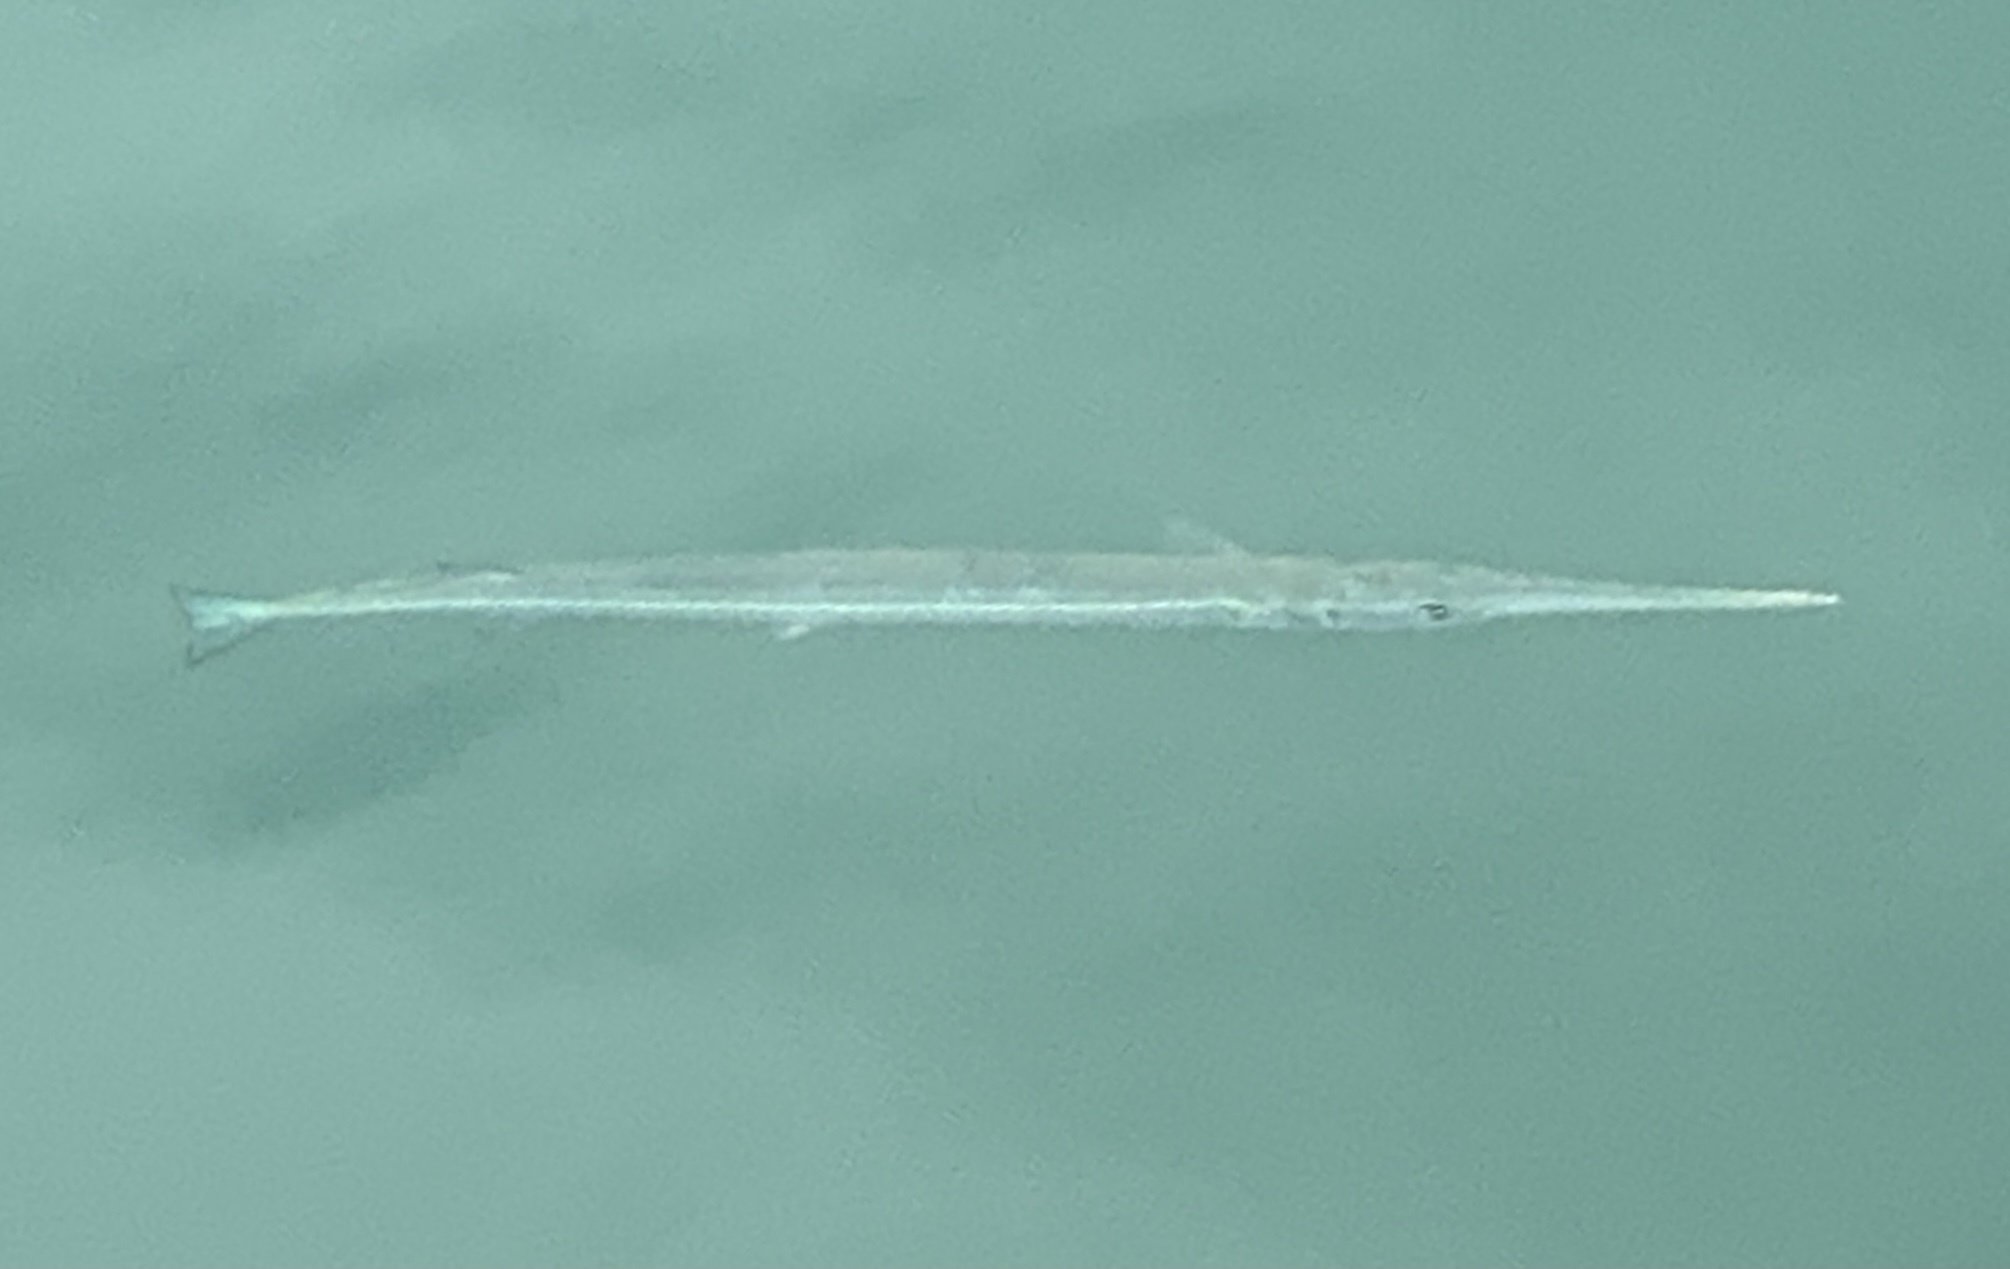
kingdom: Animalia
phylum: Chordata
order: Beloniformes
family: Belonidae
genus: Strongylura
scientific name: Strongylura marina
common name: Atlantic needlefish
